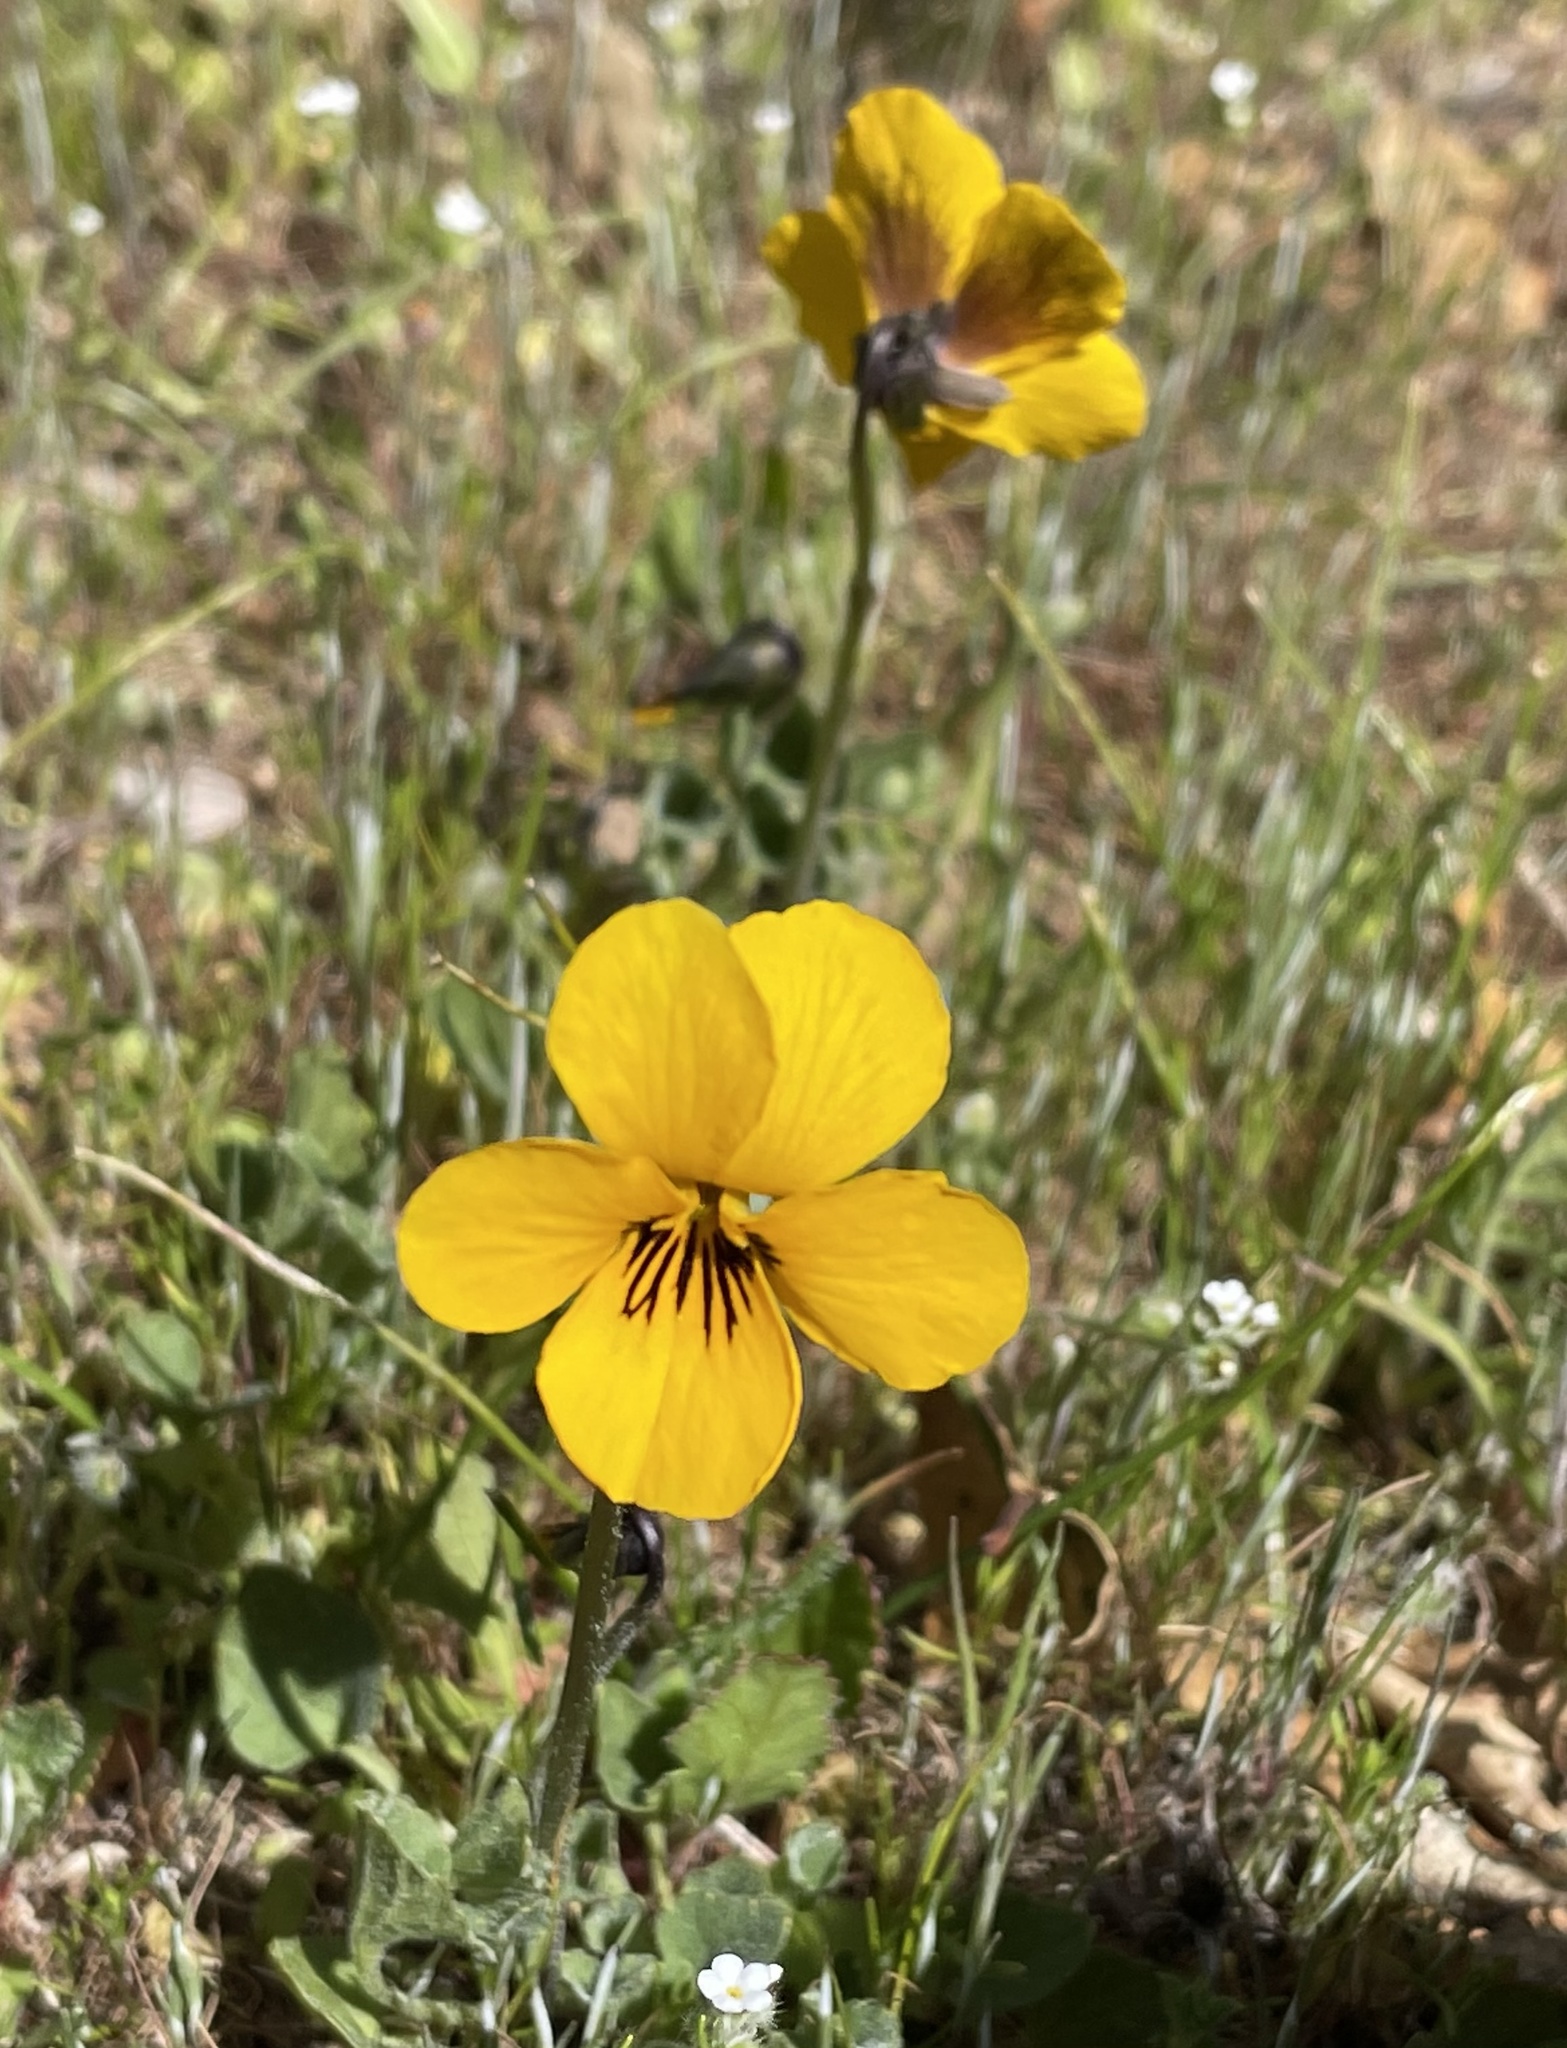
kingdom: Plantae
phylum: Tracheophyta
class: Magnoliopsida
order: Malpighiales
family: Violaceae
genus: Viola
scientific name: Viola pedunculata
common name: California golden violet
